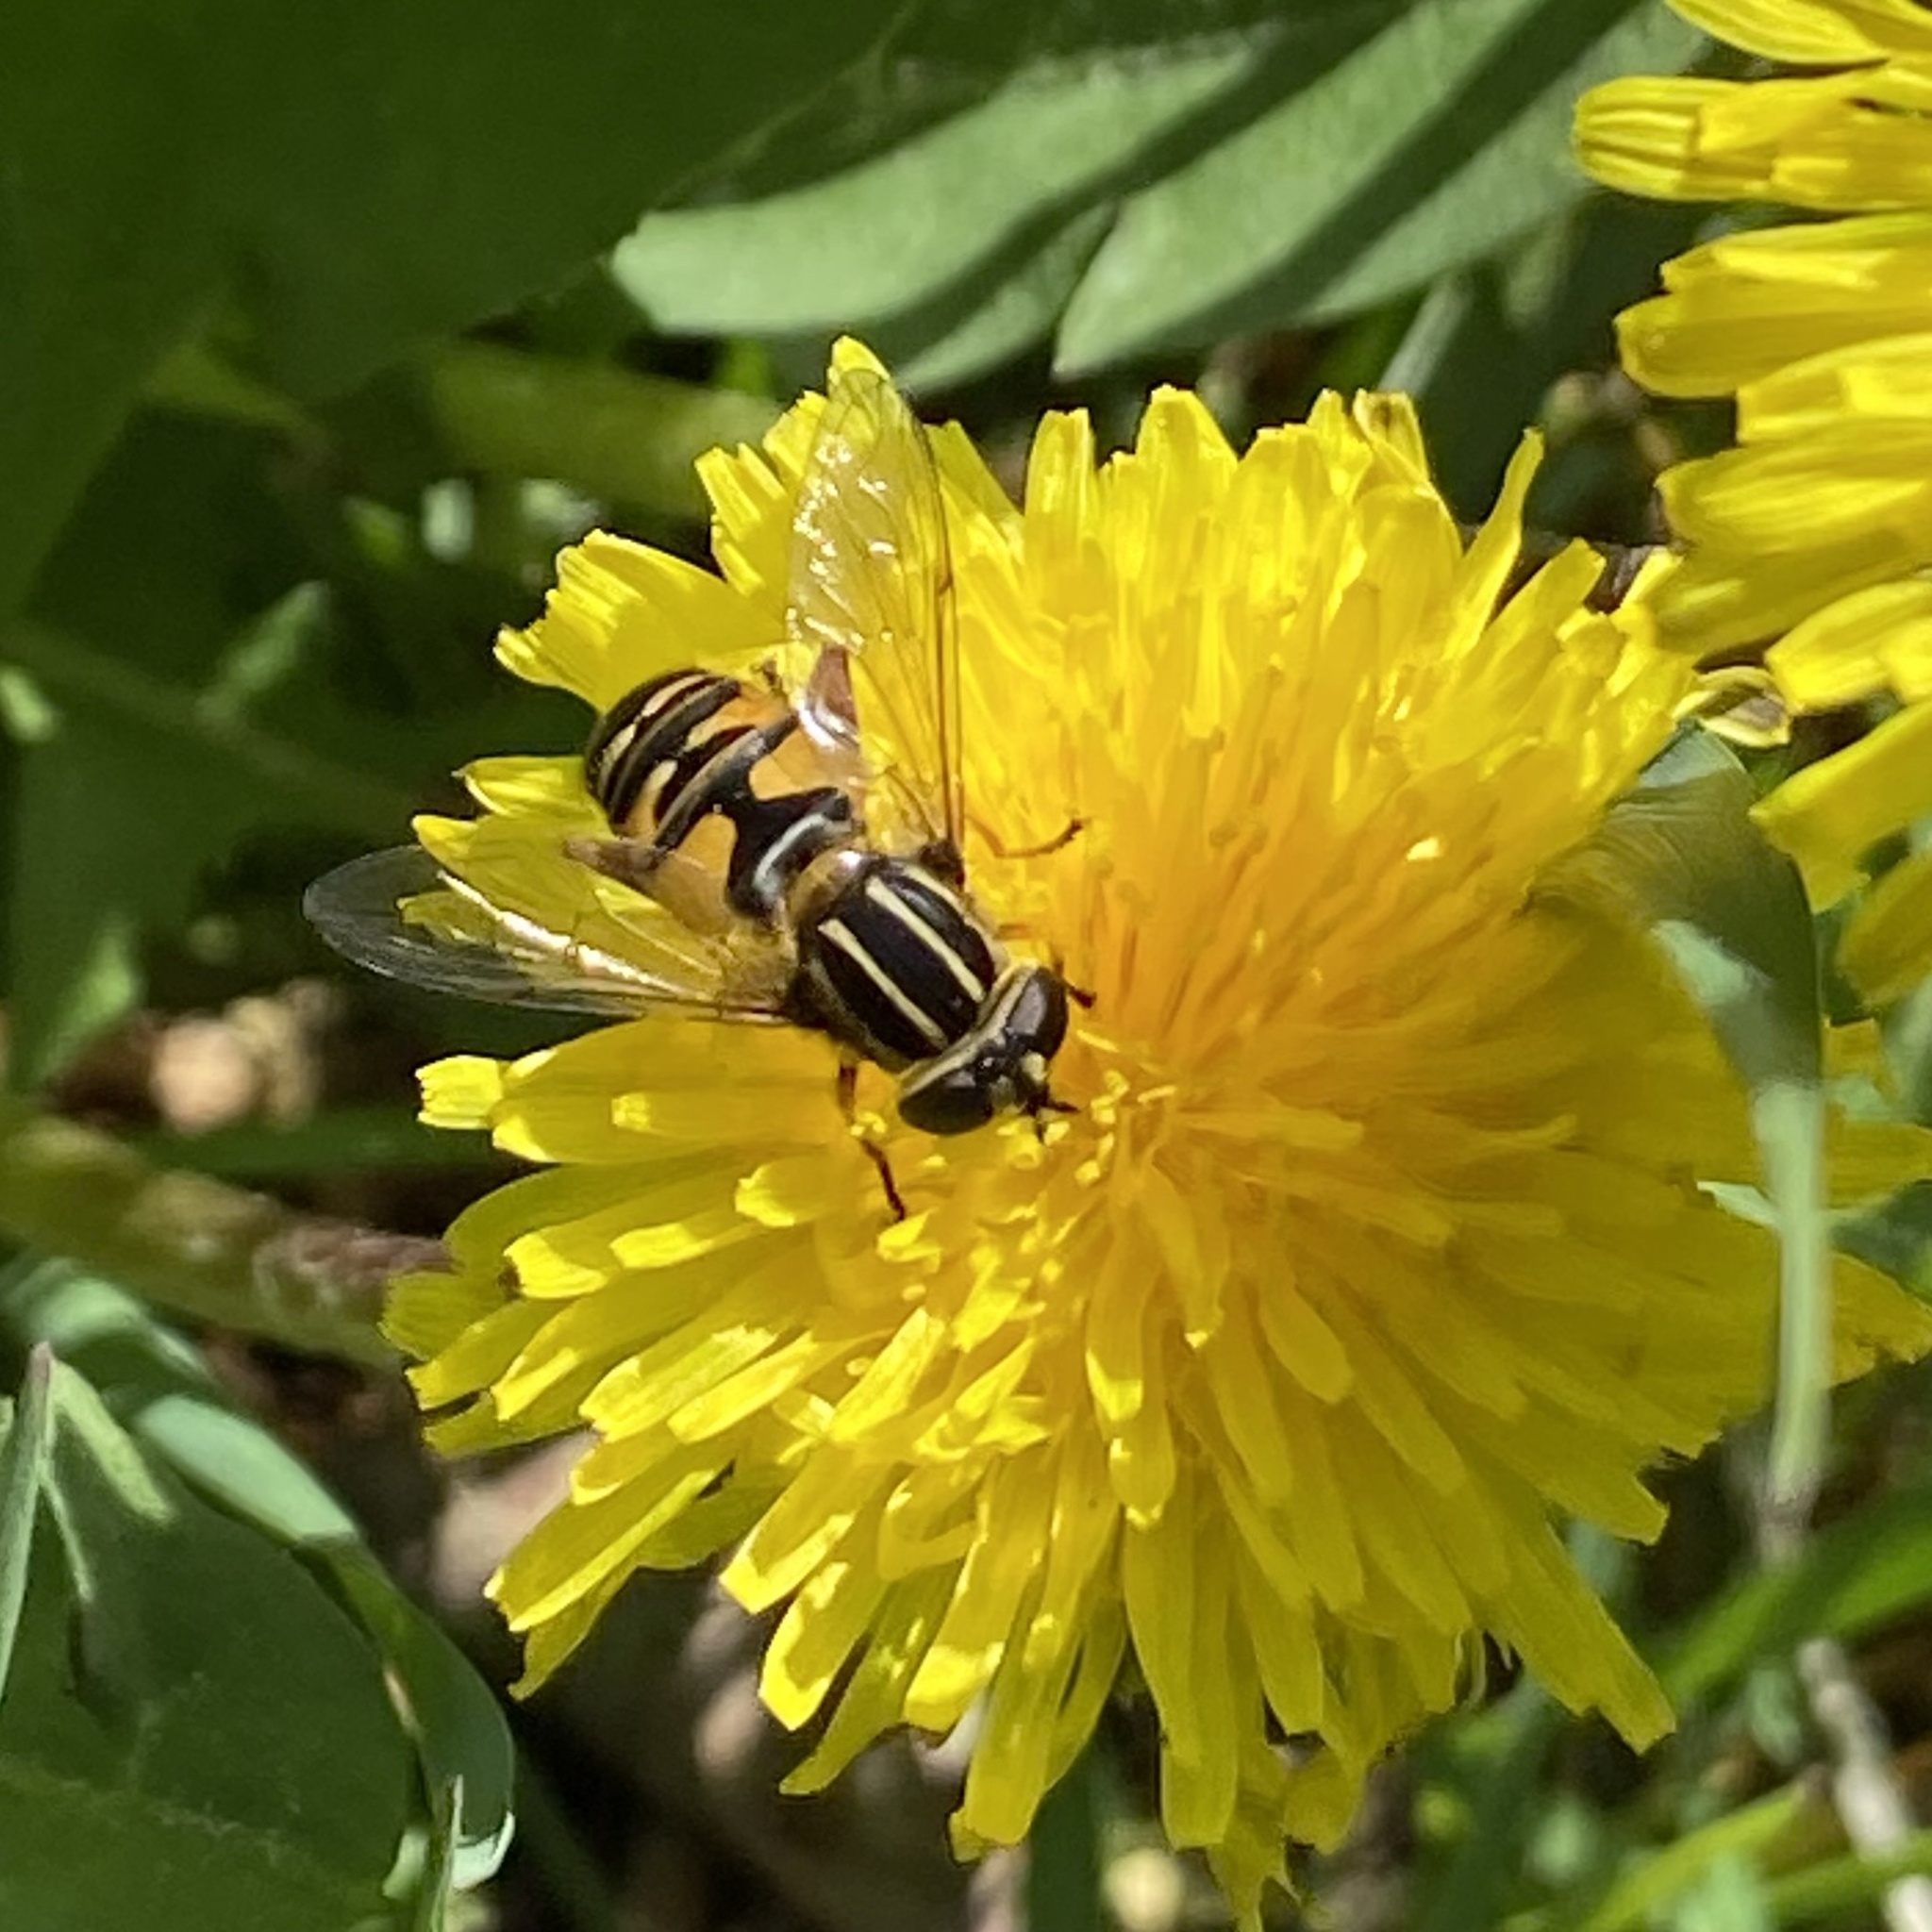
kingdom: Animalia
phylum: Arthropoda
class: Insecta
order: Diptera
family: Syrphidae
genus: Helophilus
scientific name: Helophilus pendulus
